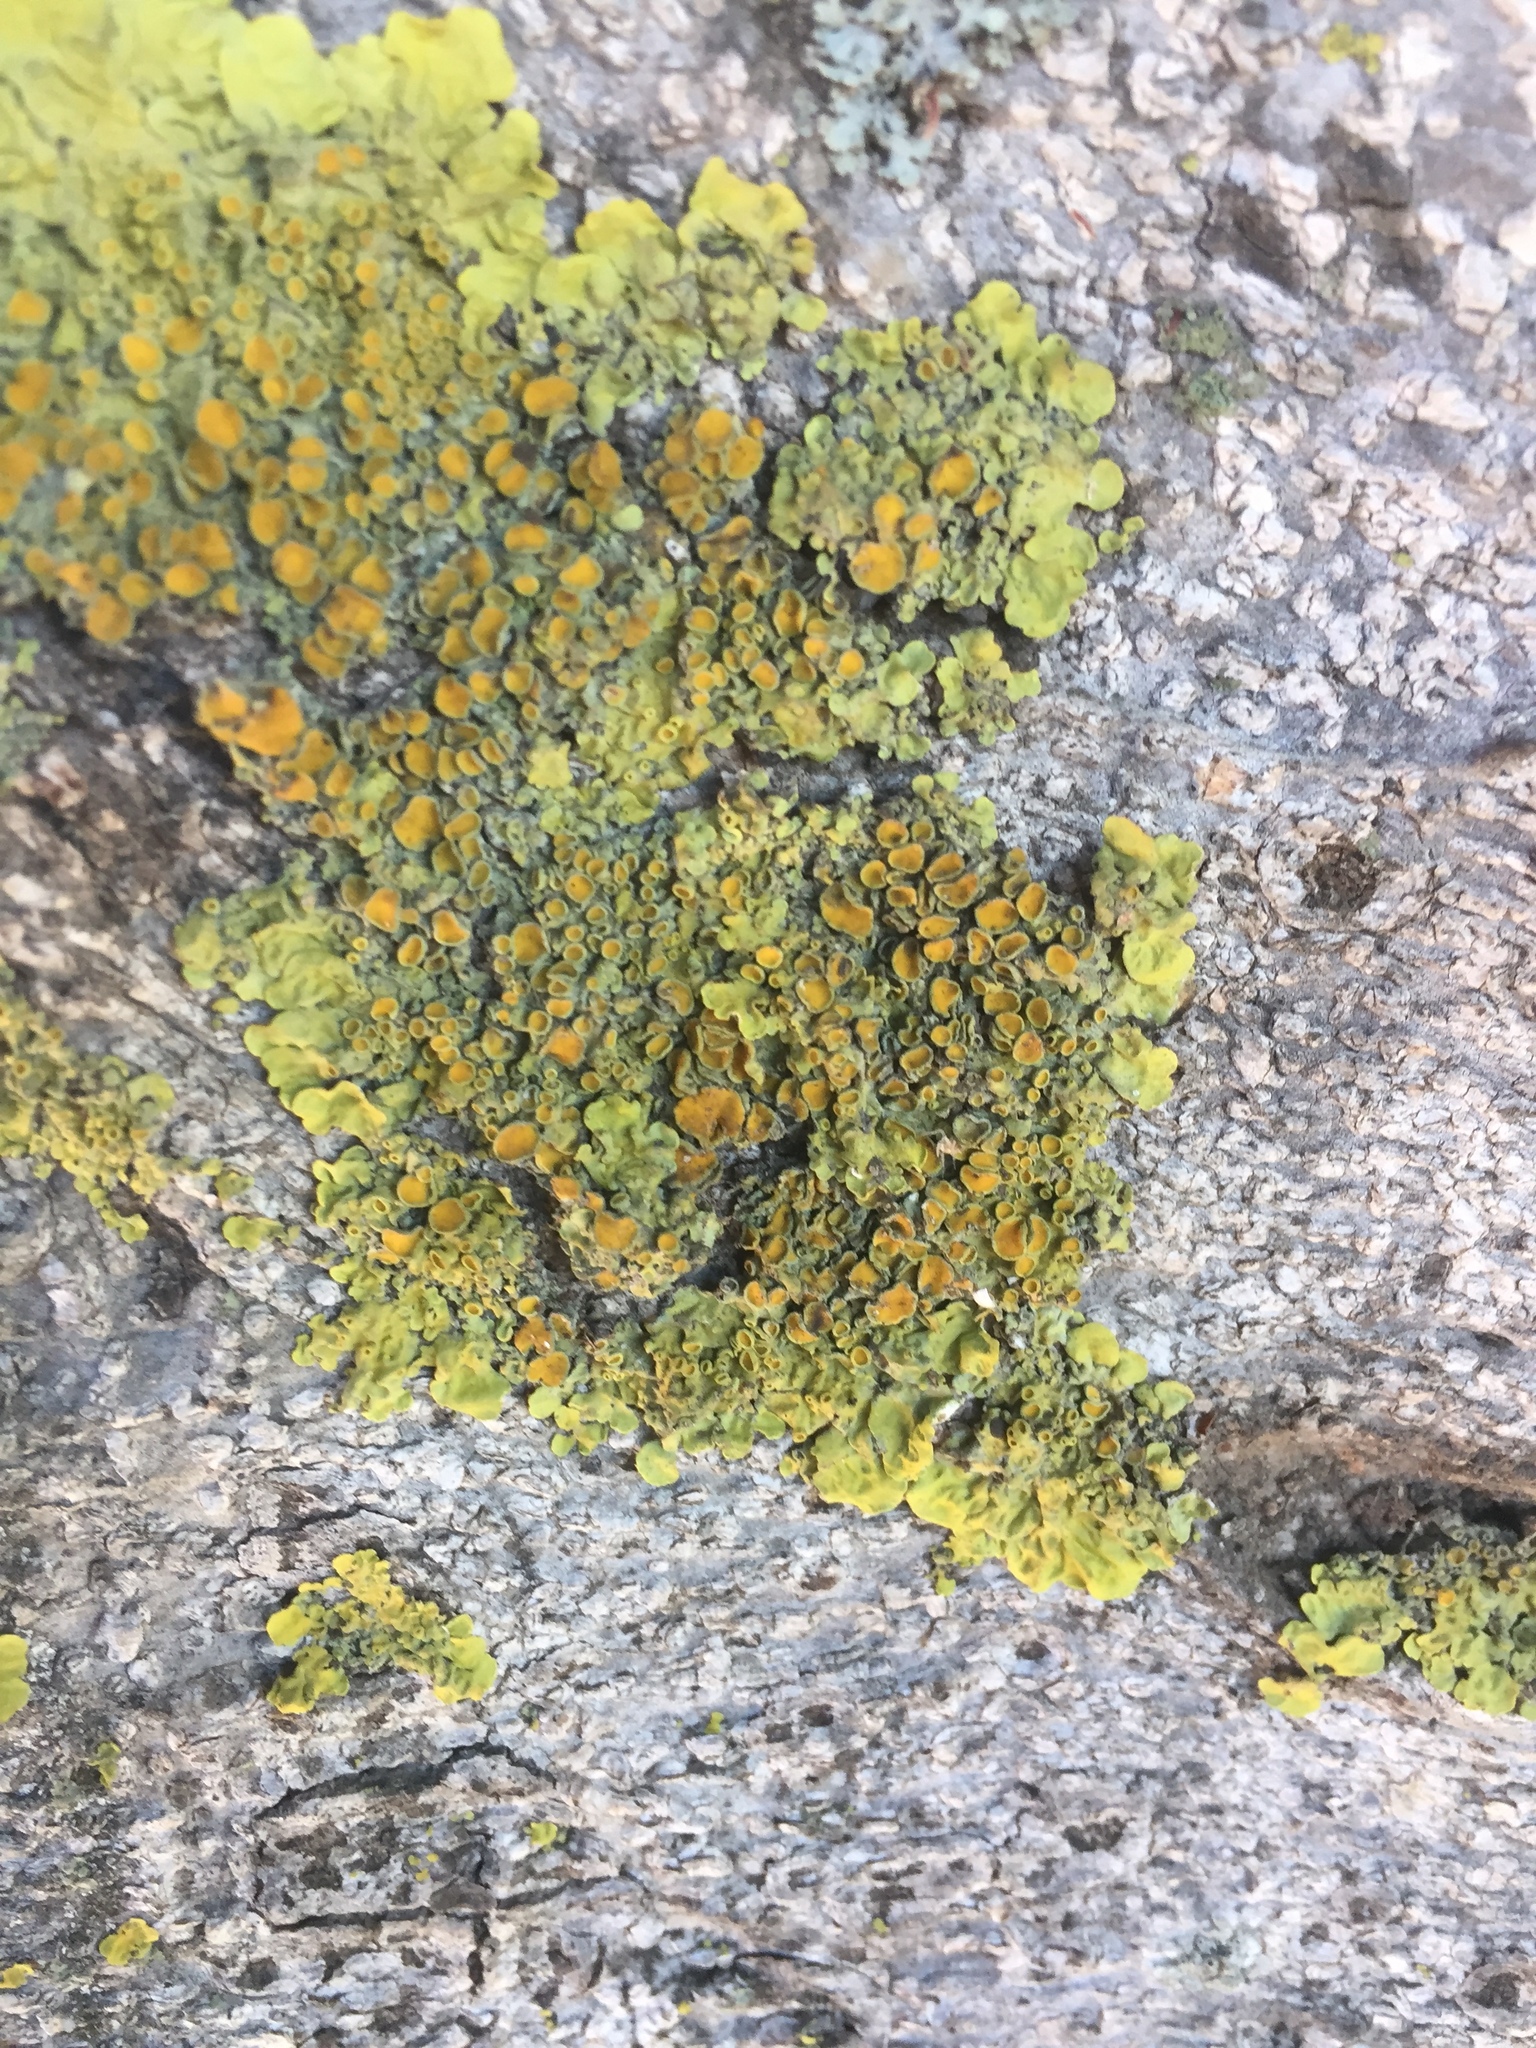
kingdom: Fungi
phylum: Ascomycota
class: Lecanoromycetes
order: Teloschistales
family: Teloschistaceae
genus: Xanthoria
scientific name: Xanthoria parietina
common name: Common orange lichen
